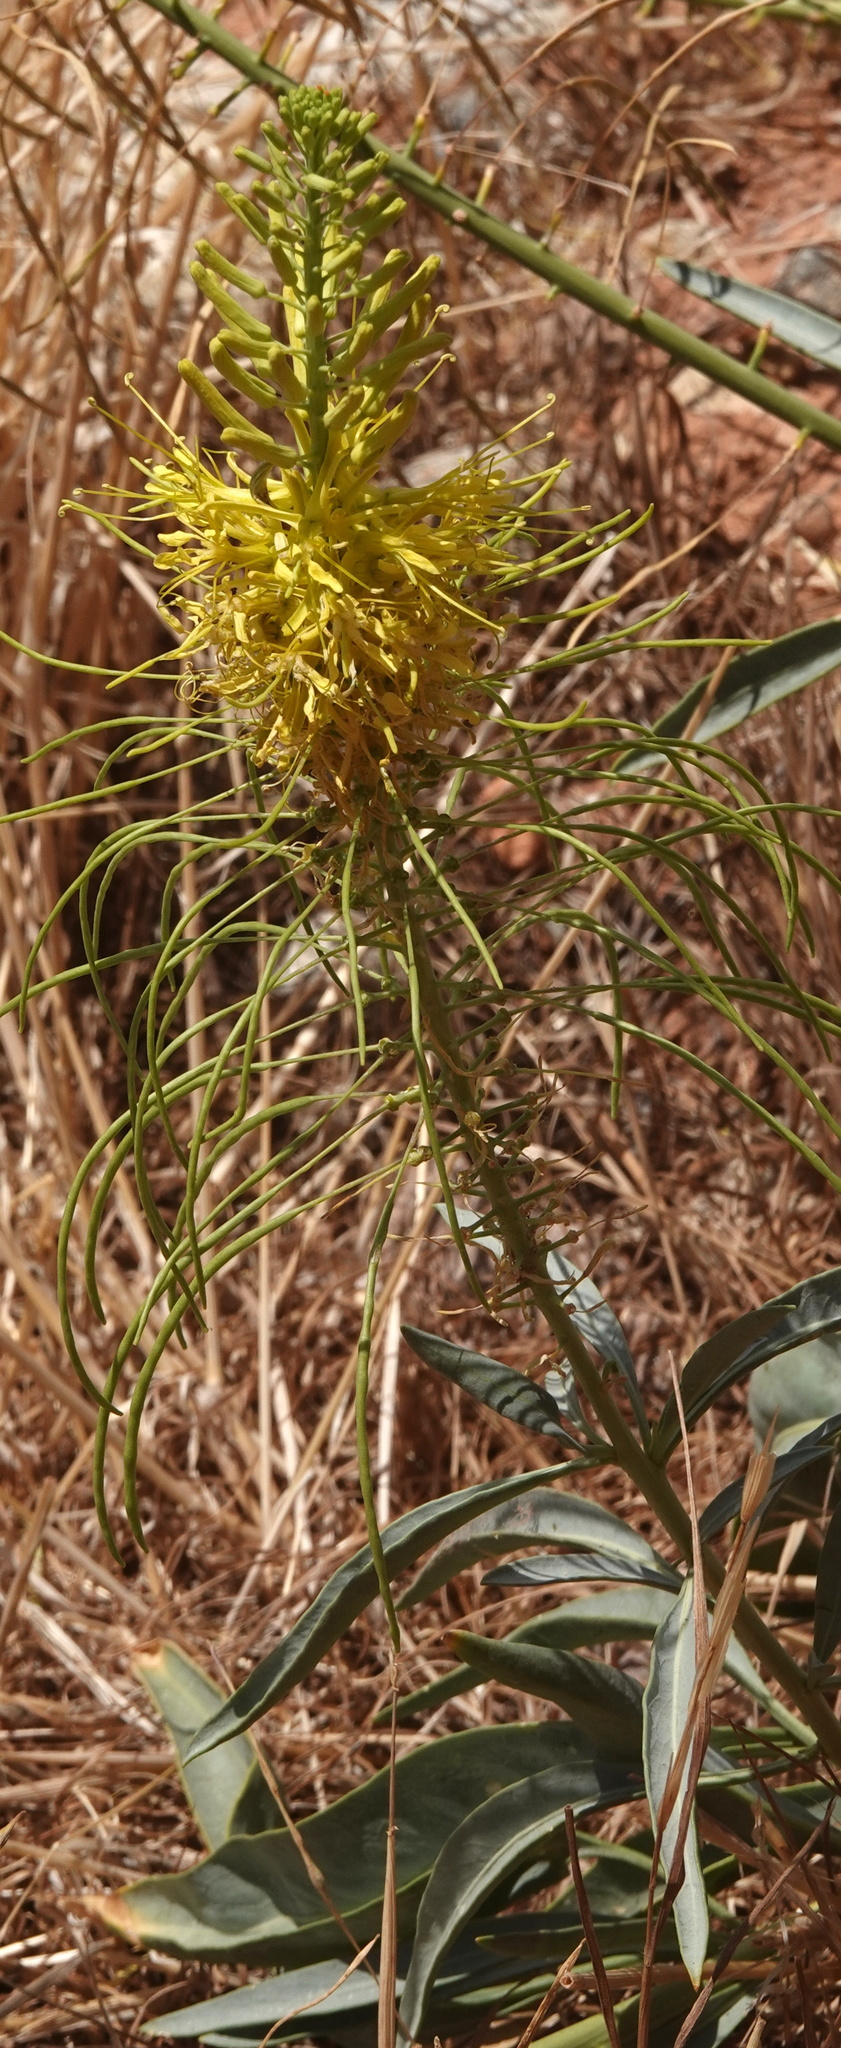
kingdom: Plantae
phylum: Tracheophyta
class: Magnoliopsida
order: Brassicales
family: Brassicaceae
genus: Stanleya
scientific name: Stanleya pinnata
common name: Prince's-plume
